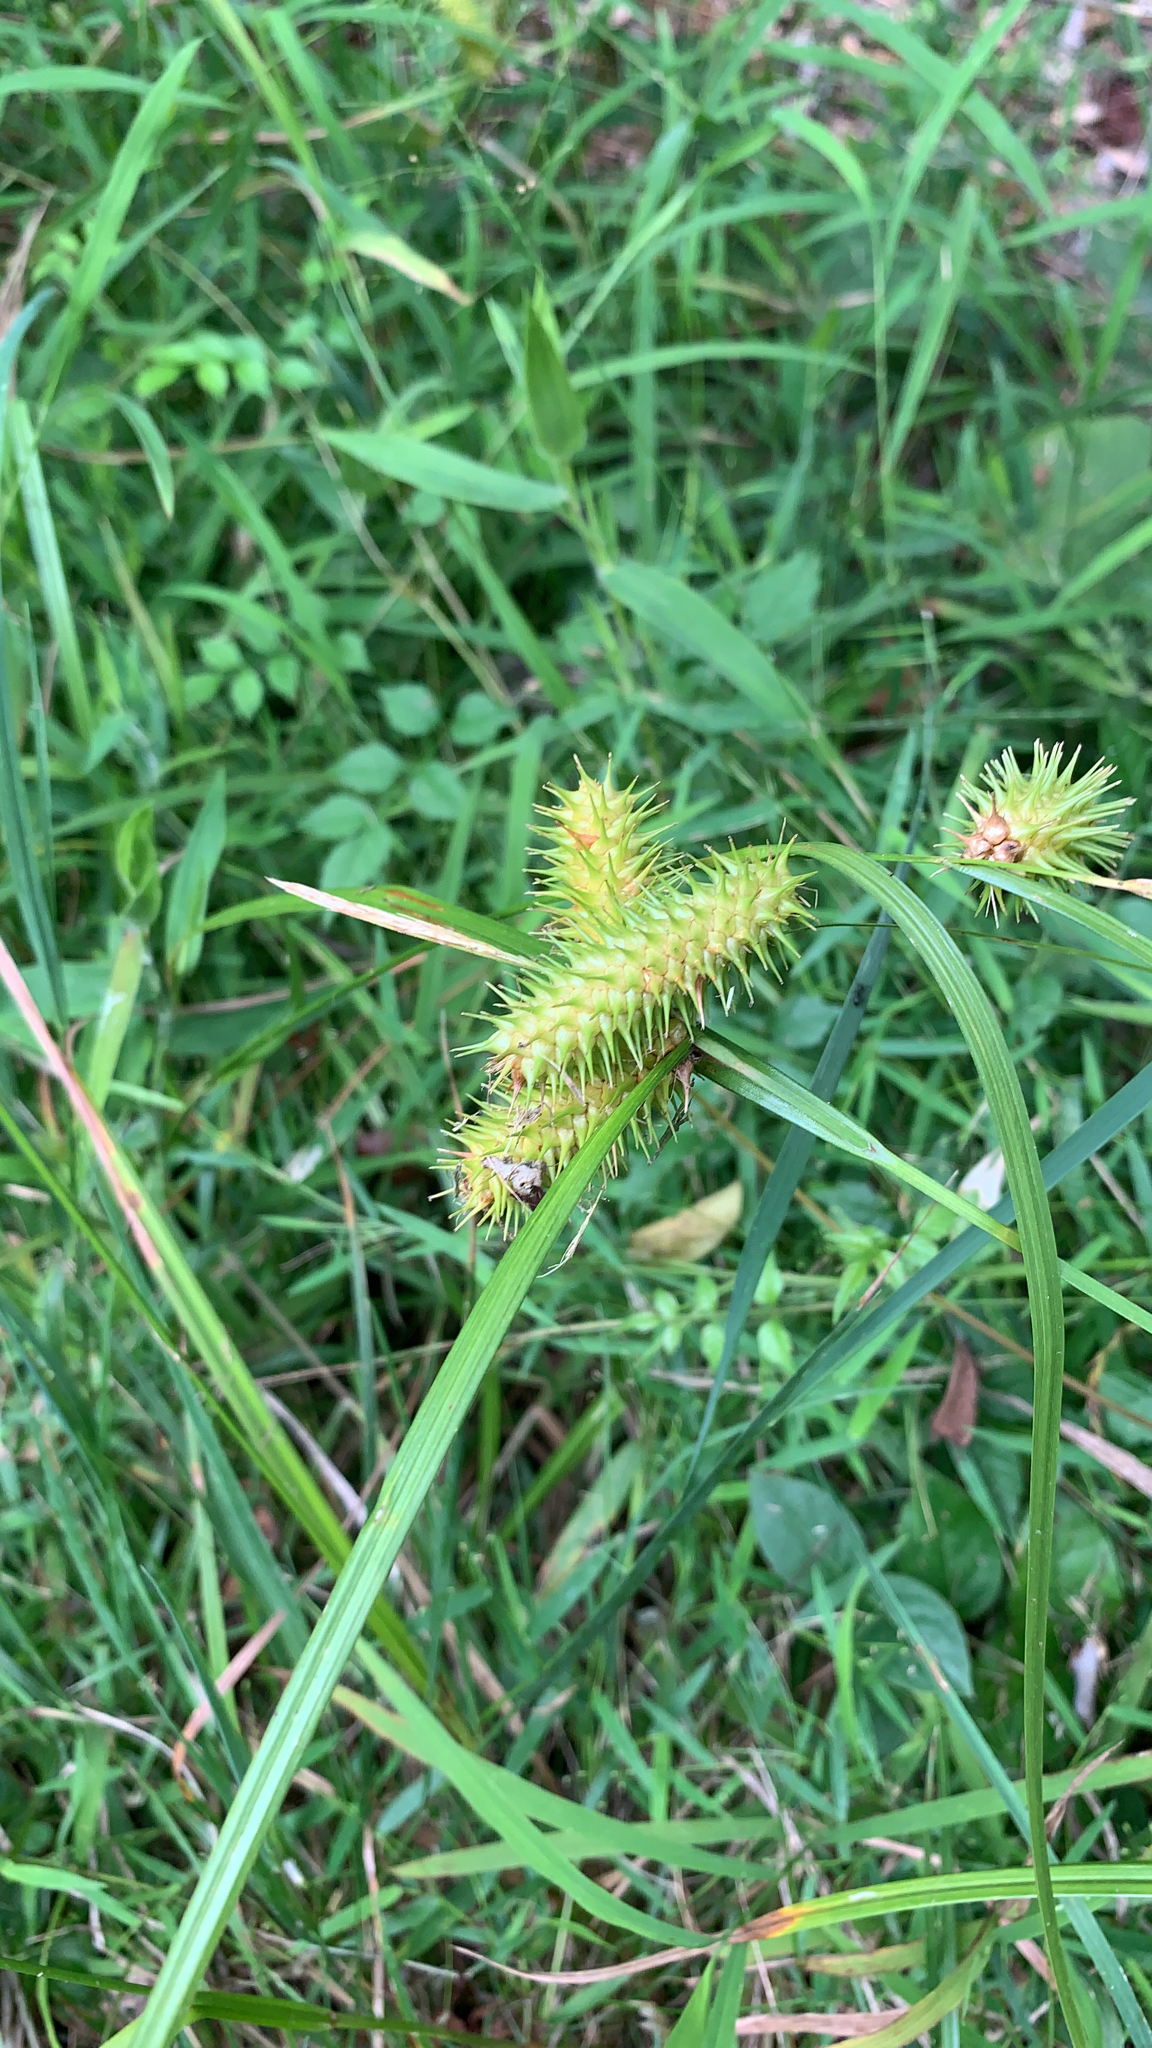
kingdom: Plantae
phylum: Tracheophyta
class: Liliopsida
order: Poales
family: Cyperaceae
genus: Carex
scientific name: Carex lurida
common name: Sallow sedge
